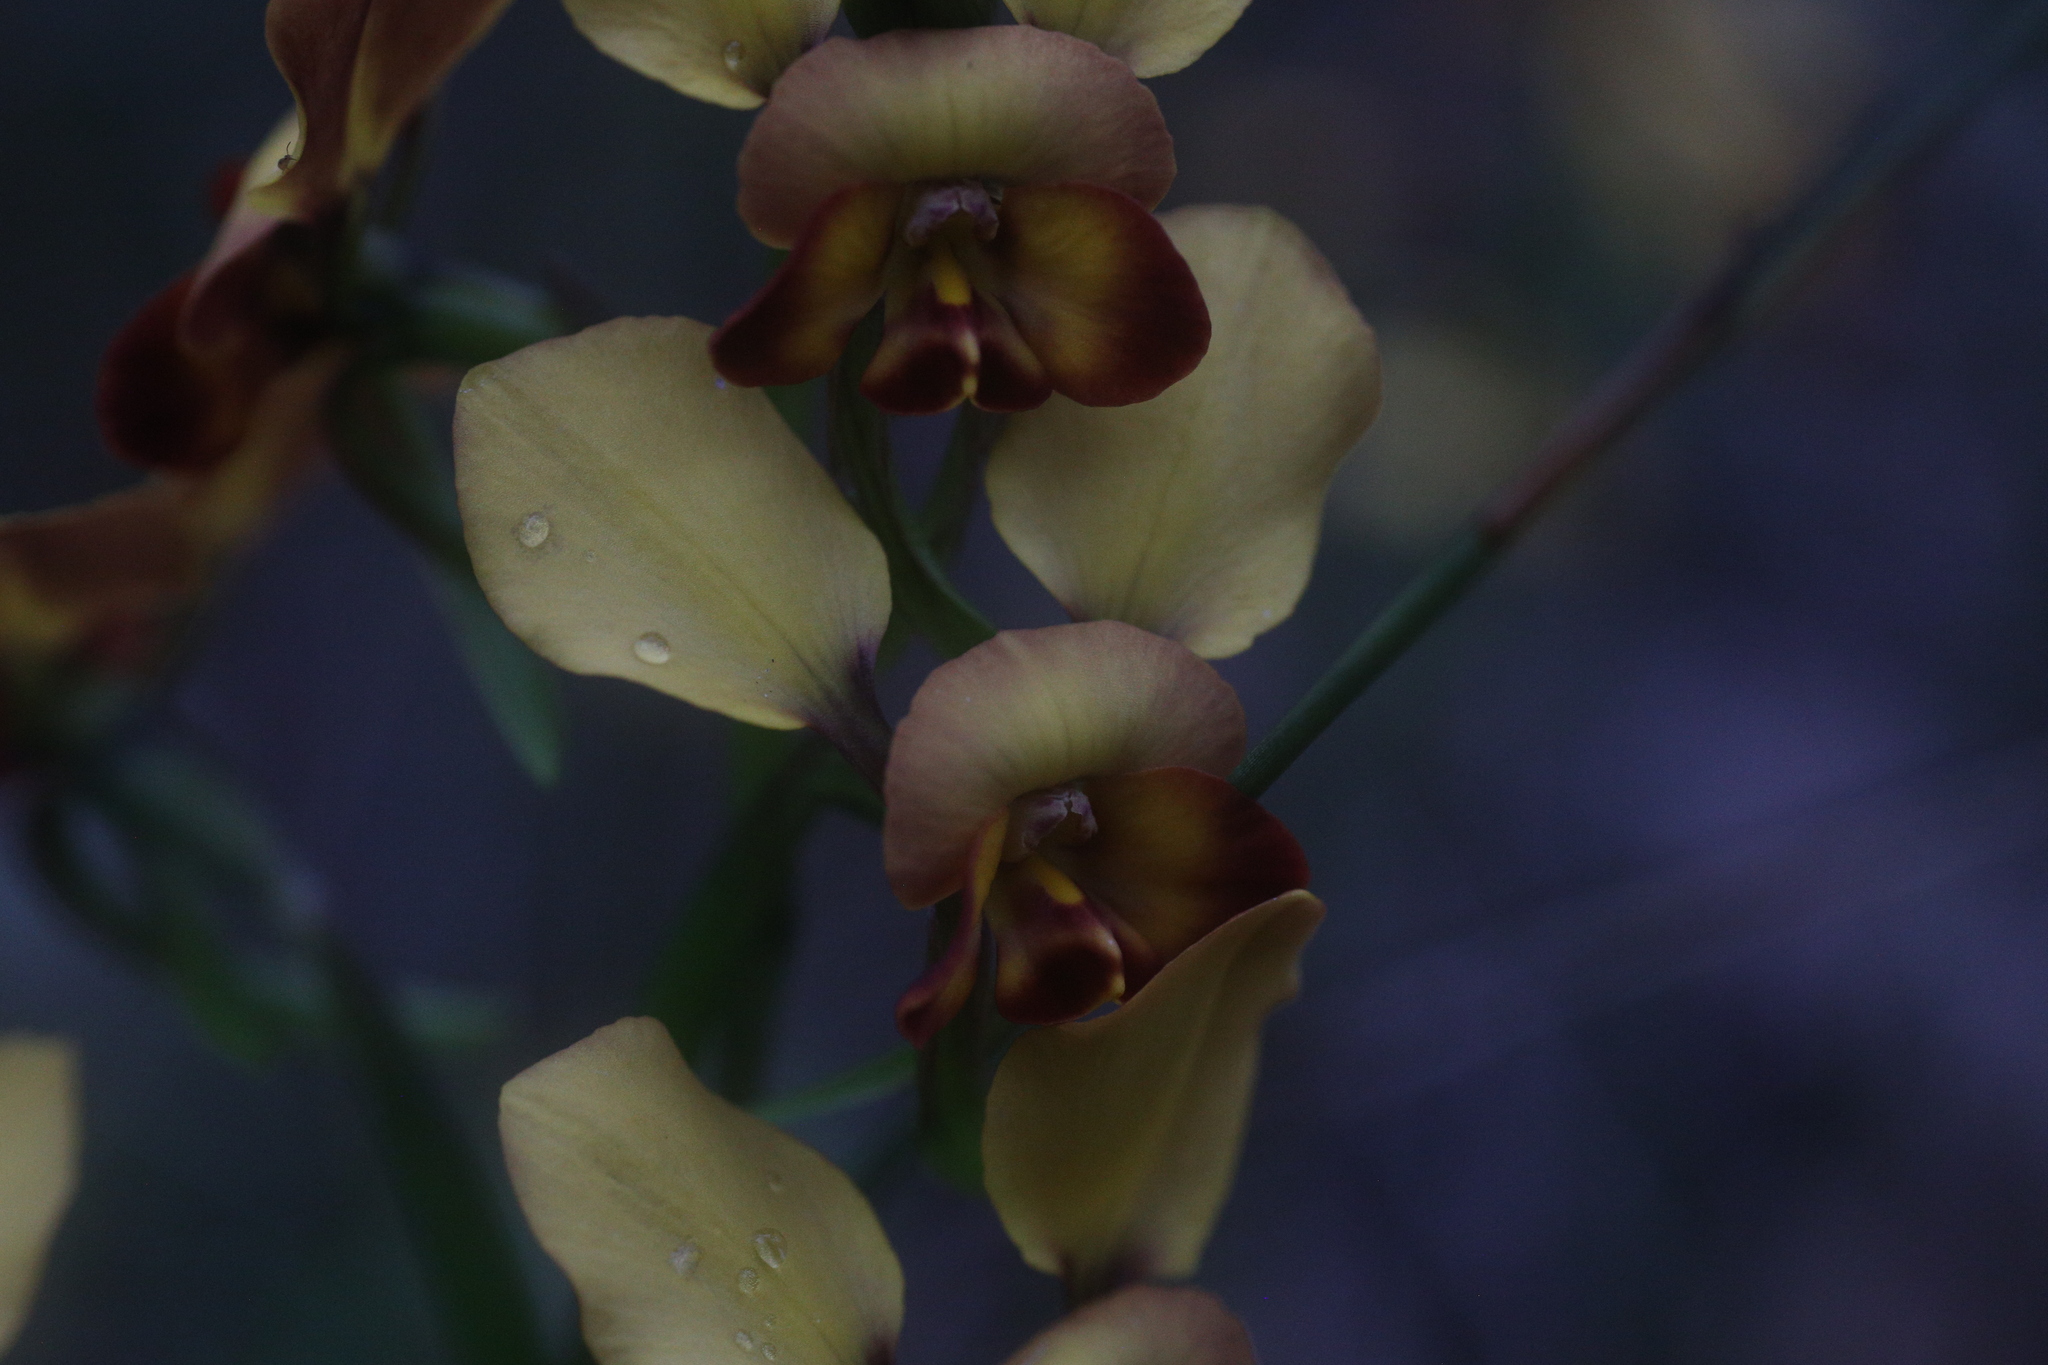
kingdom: Plantae
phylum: Tracheophyta
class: Liliopsida
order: Asparagales
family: Orchidaceae
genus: Diuris
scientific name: Diuris brumalis
